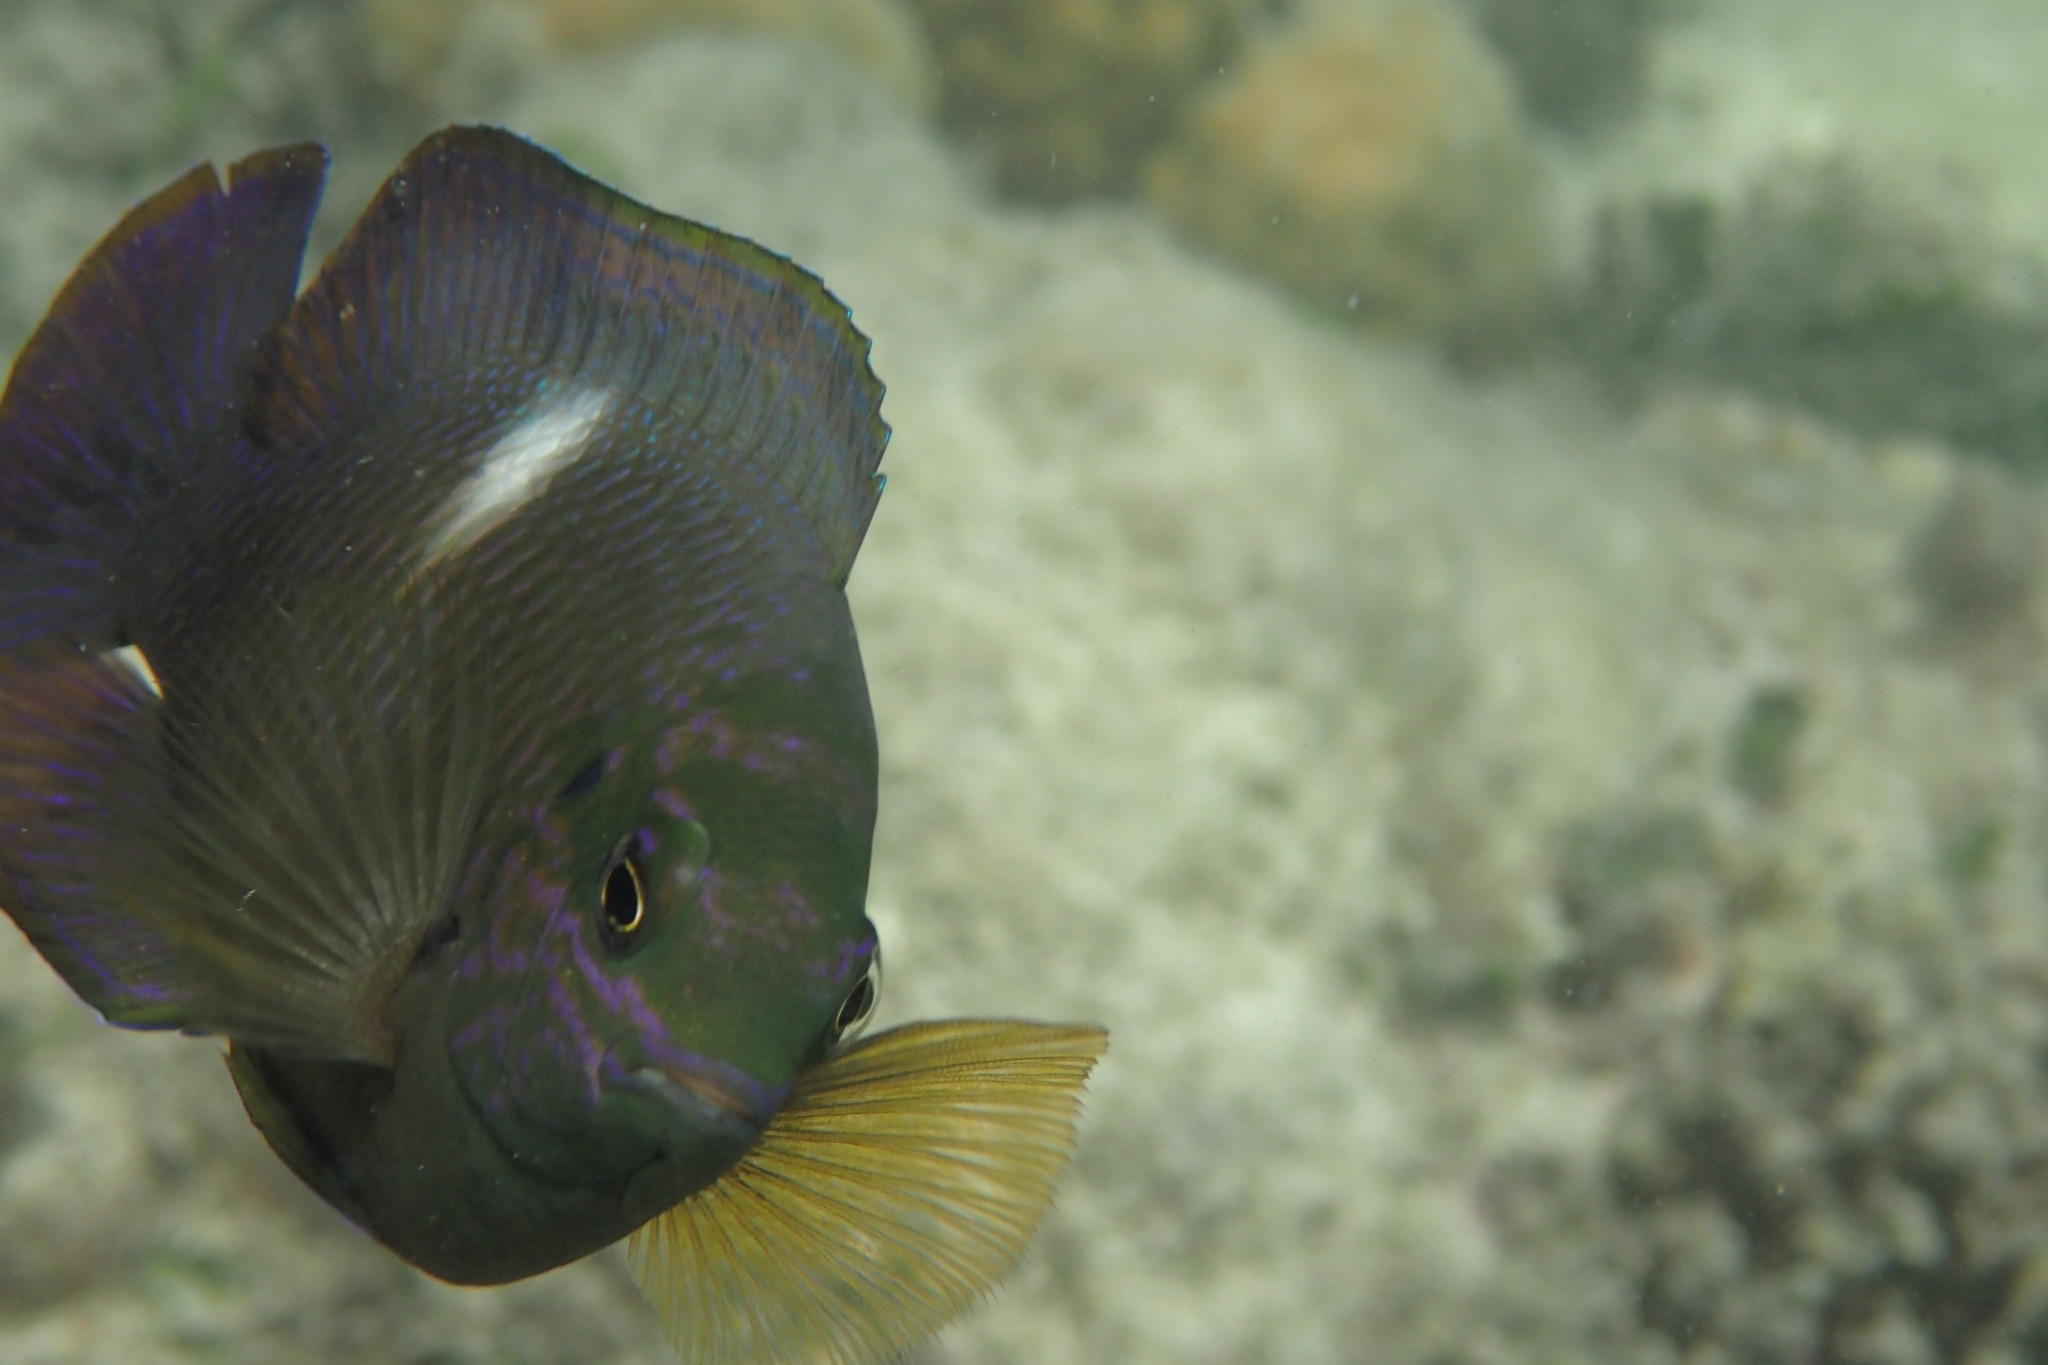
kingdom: Animalia
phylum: Chordata
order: Perciformes
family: Pomacentridae
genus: Dischistodus
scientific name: Dischistodus pseudochrysopoecilus
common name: Monarch damsel
